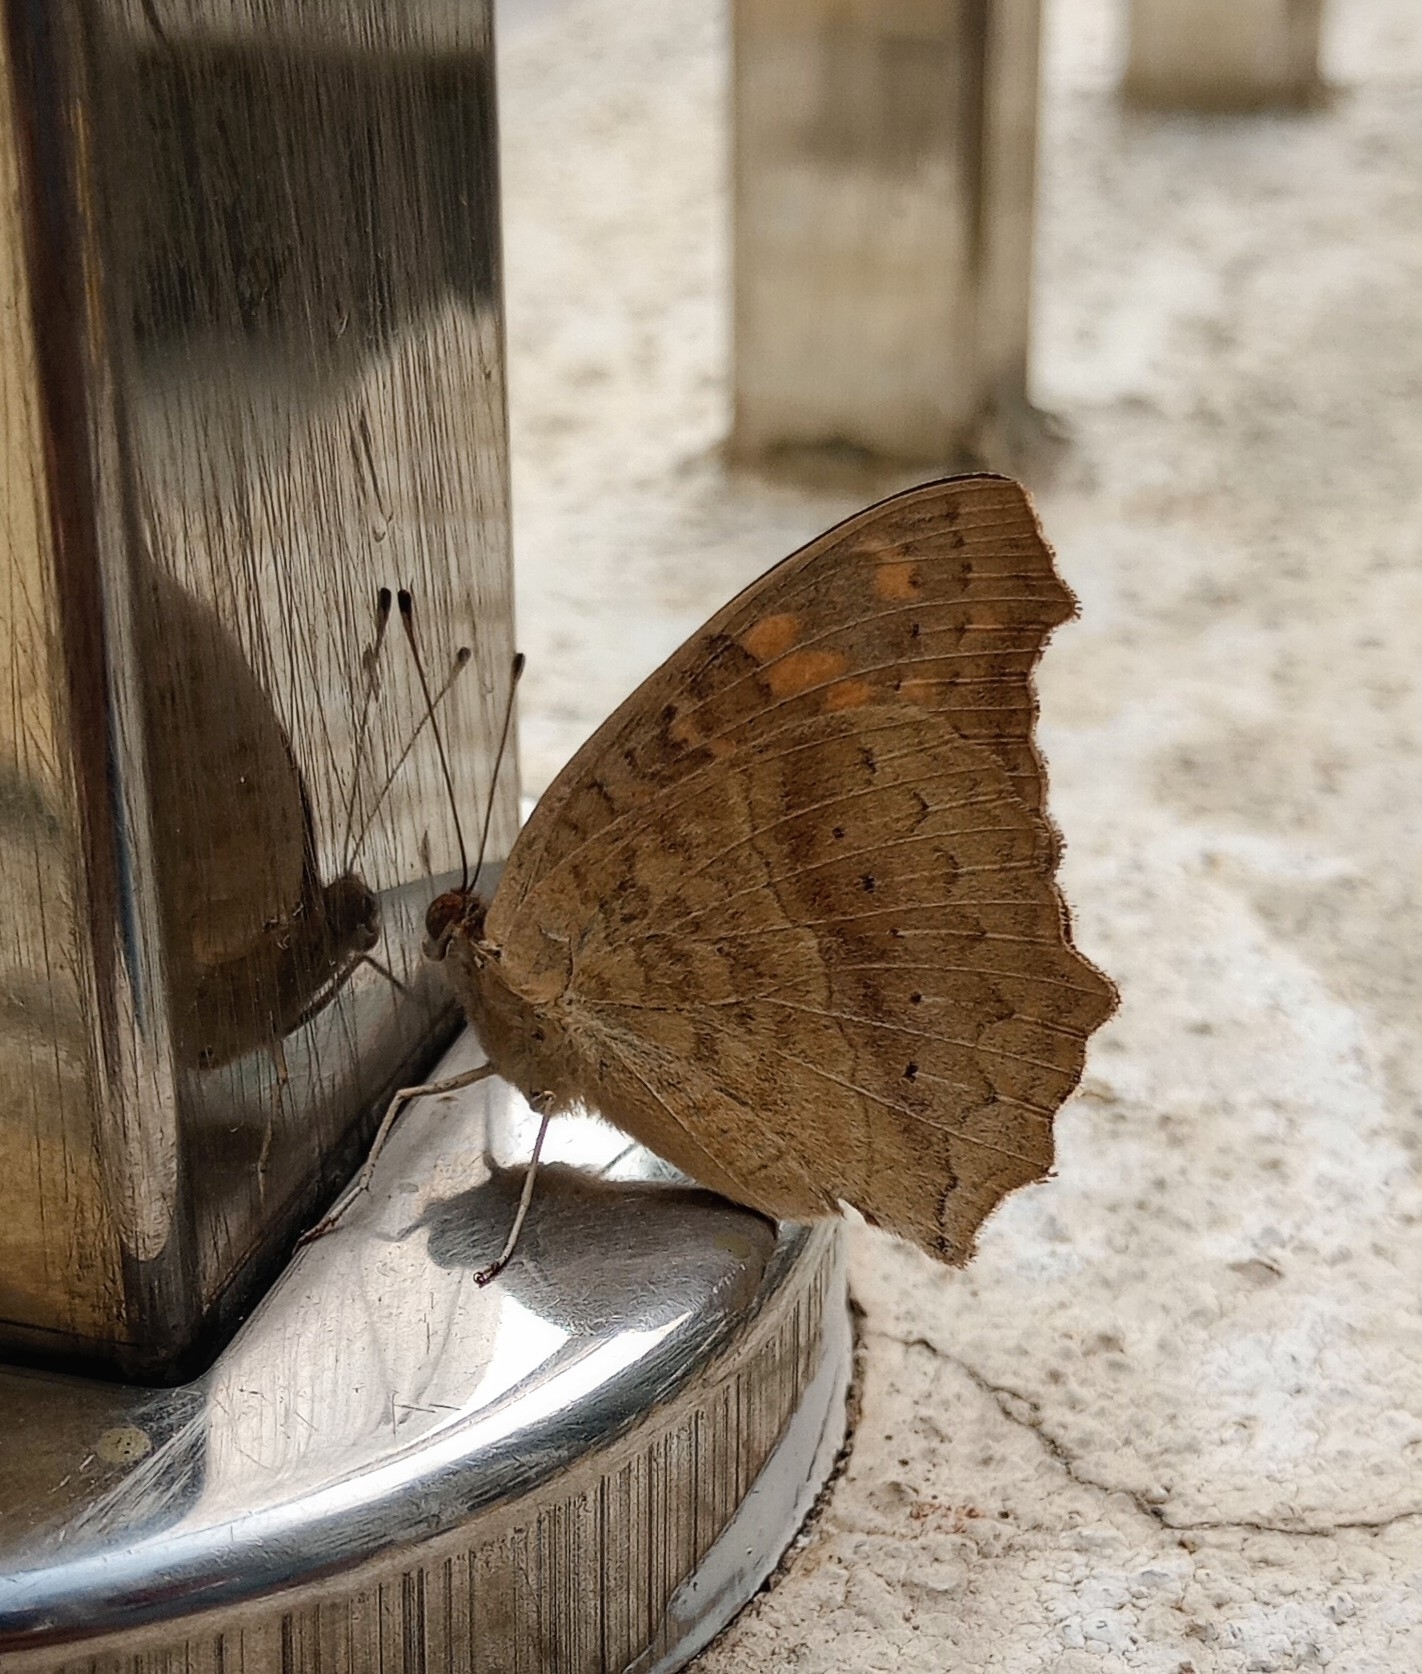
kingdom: Animalia
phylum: Arthropoda
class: Insecta
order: Lepidoptera
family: Nymphalidae
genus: Junonia
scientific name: Junonia lemonias
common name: Lemon pansy
